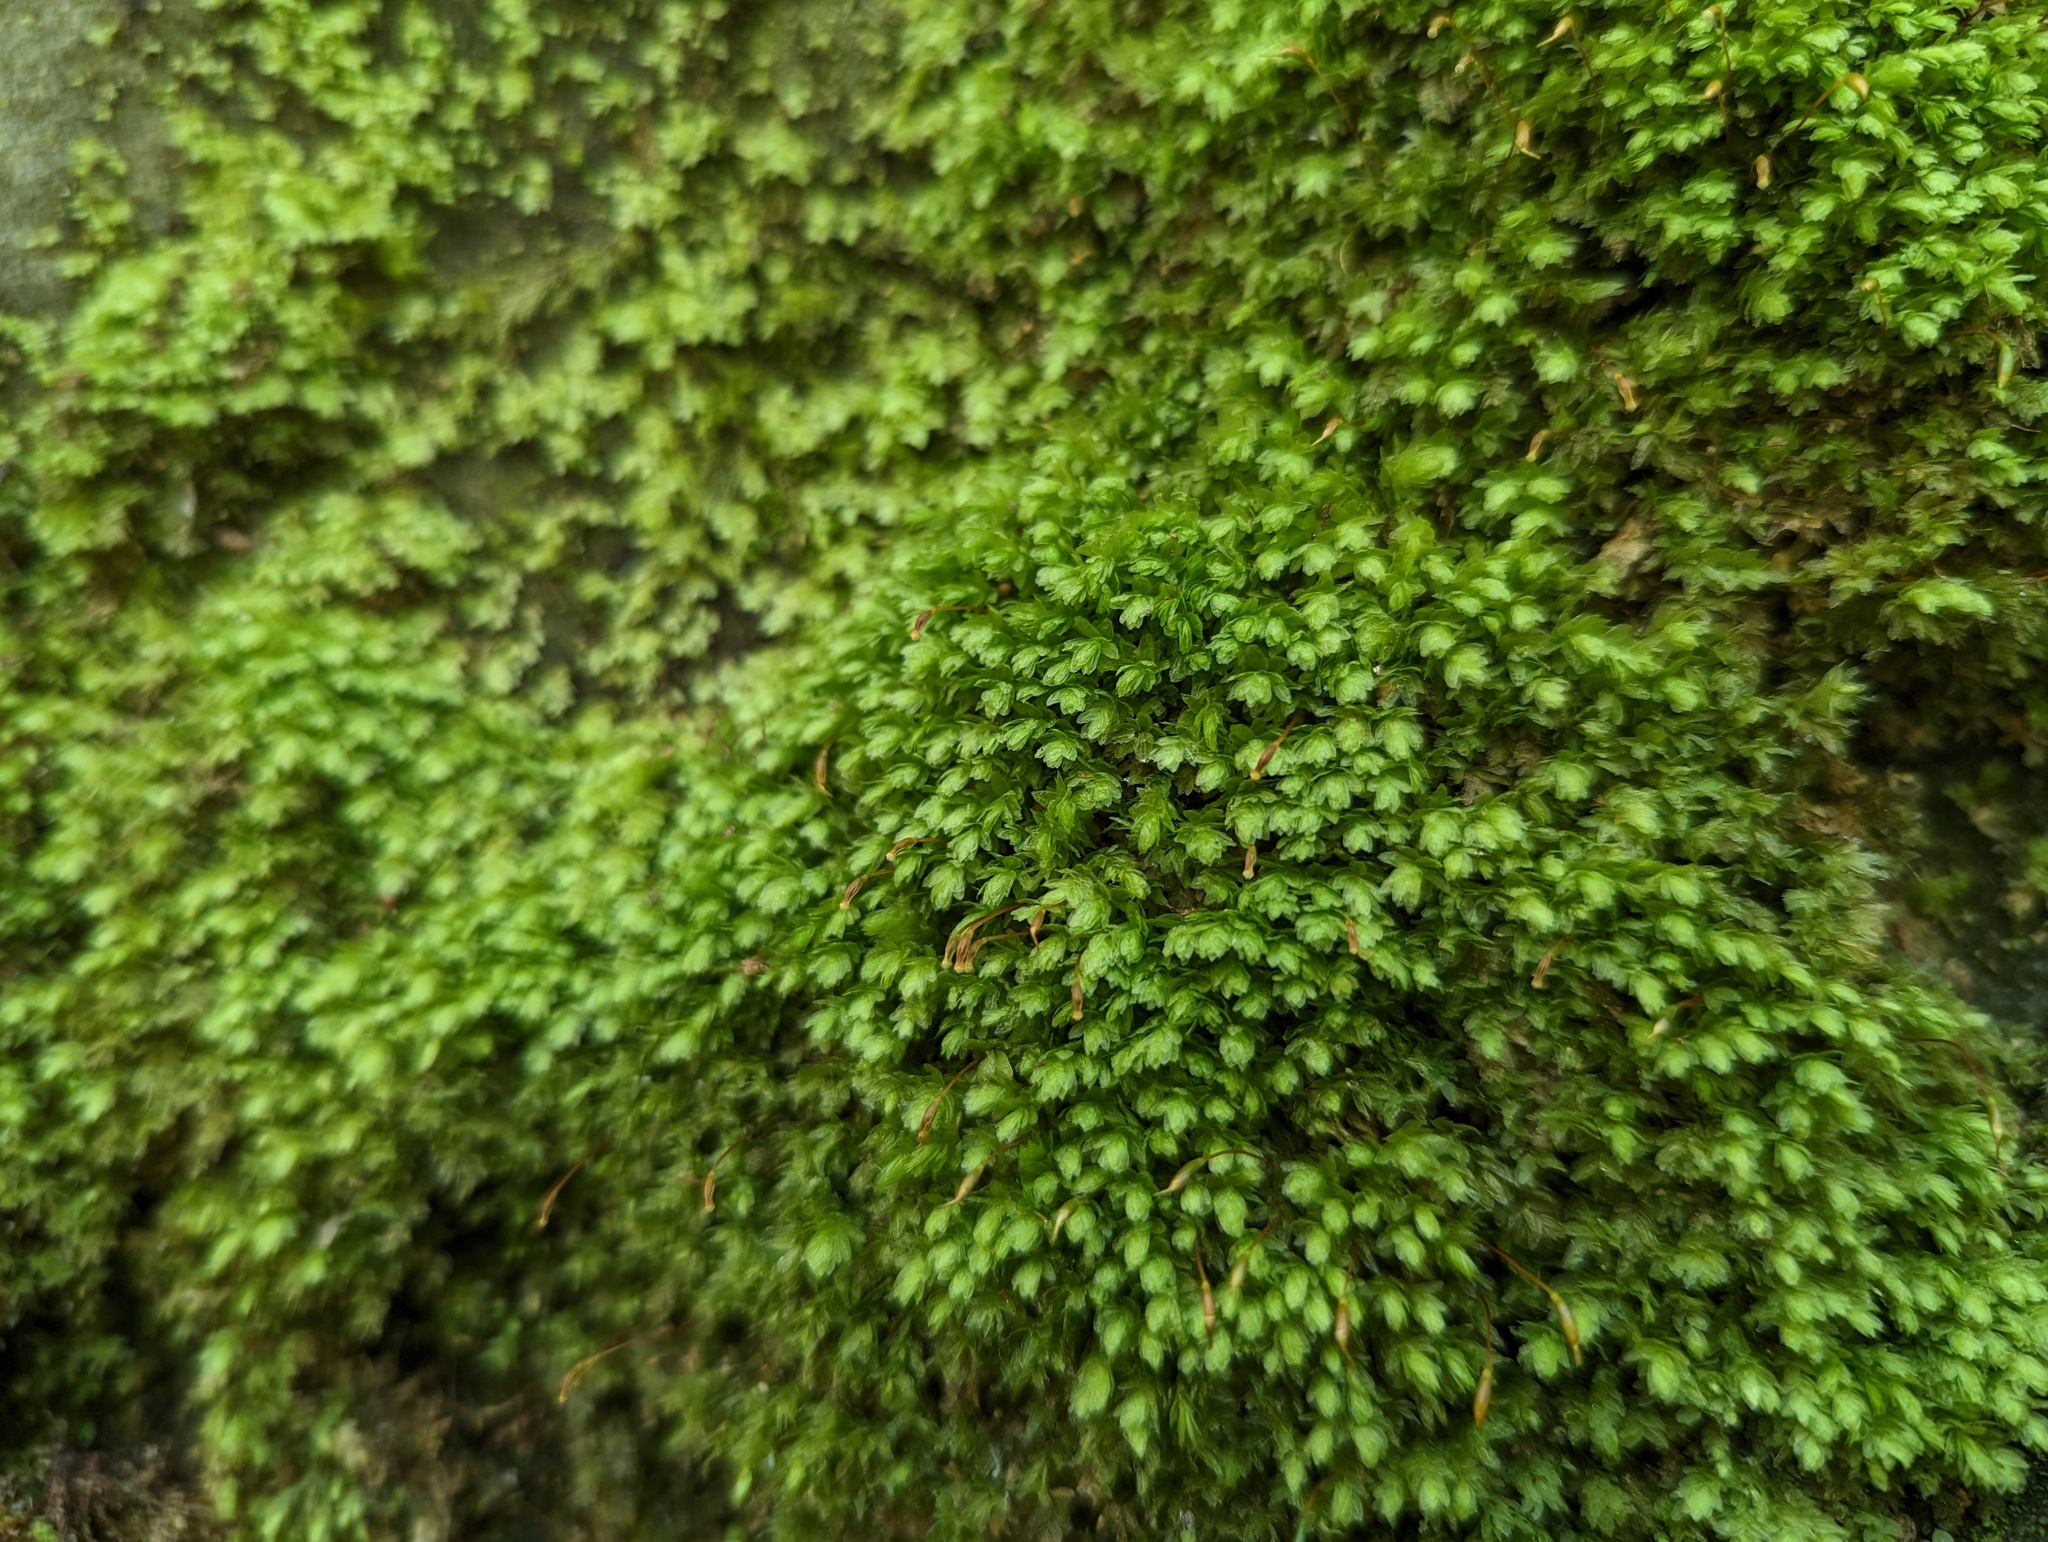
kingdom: Plantae
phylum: Bryophyta
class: Bryopsida
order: Aulacomniales
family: Aulacomniaceae
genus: Aulacomnium
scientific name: Aulacomnium heterostichum
